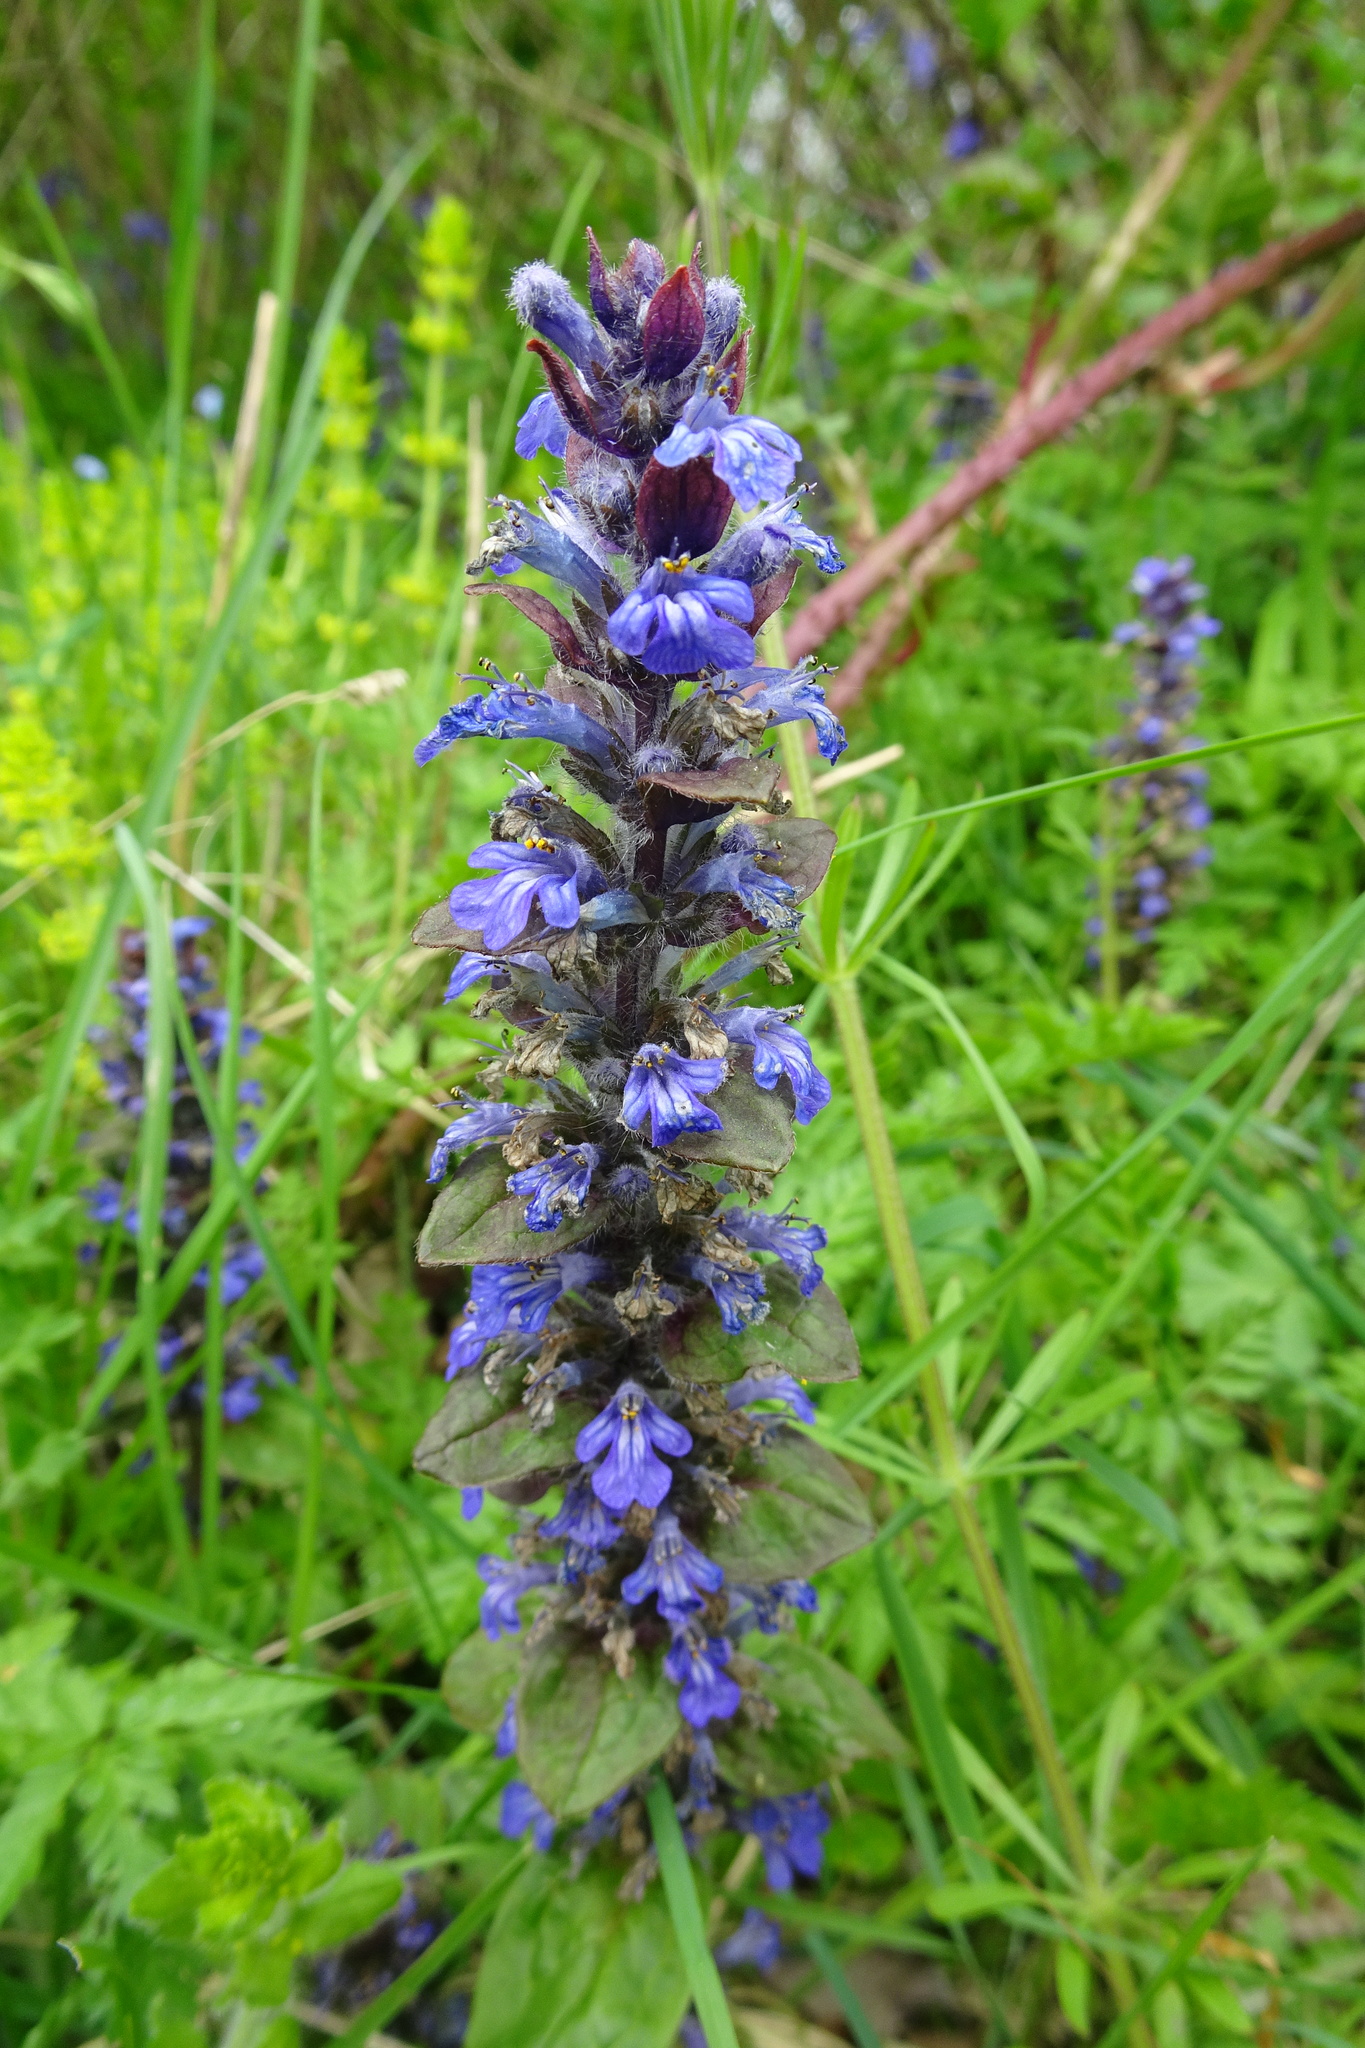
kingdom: Plantae
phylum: Tracheophyta
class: Magnoliopsida
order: Lamiales
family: Lamiaceae
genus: Ajuga
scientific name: Ajuga reptans
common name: Bugle
